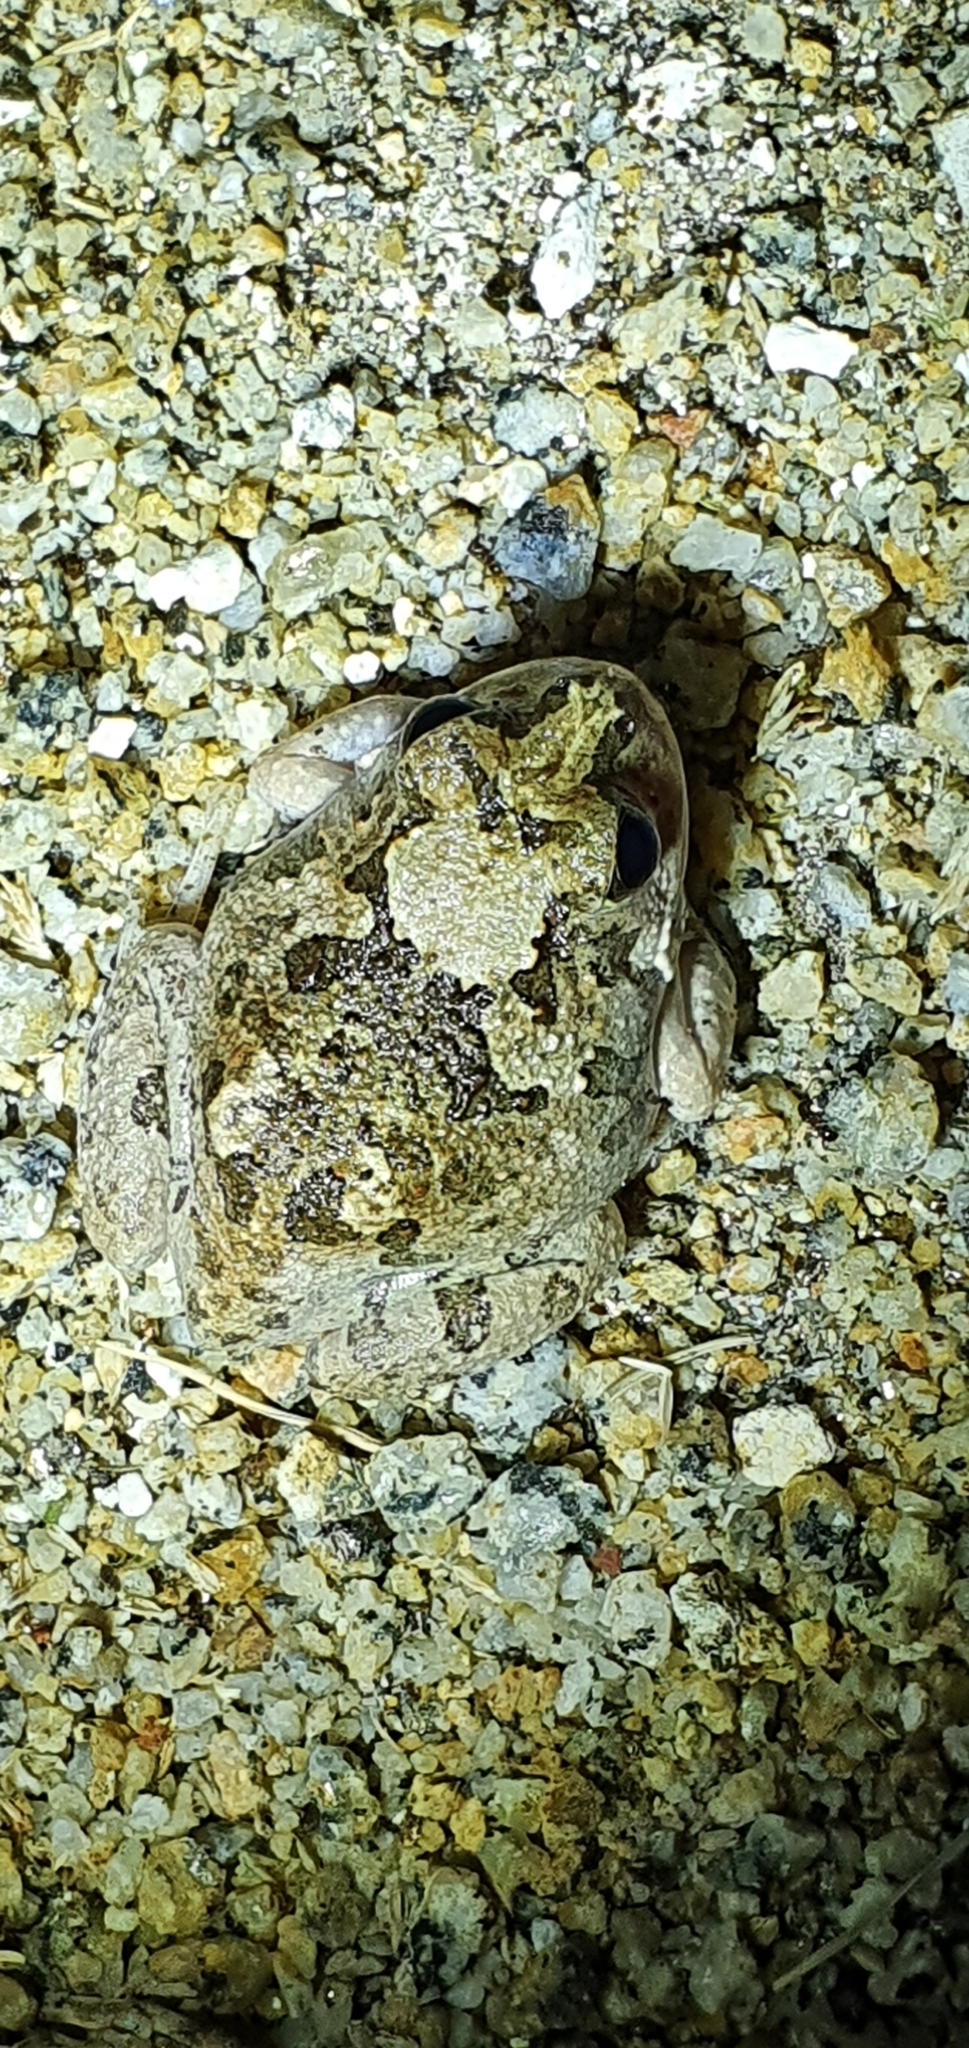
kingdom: Animalia
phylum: Chordata
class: Amphibia
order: Anura
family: Limnodynastidae
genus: Platyplectrum
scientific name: Platyplectrum ornatum
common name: Ornate burrowing frog
